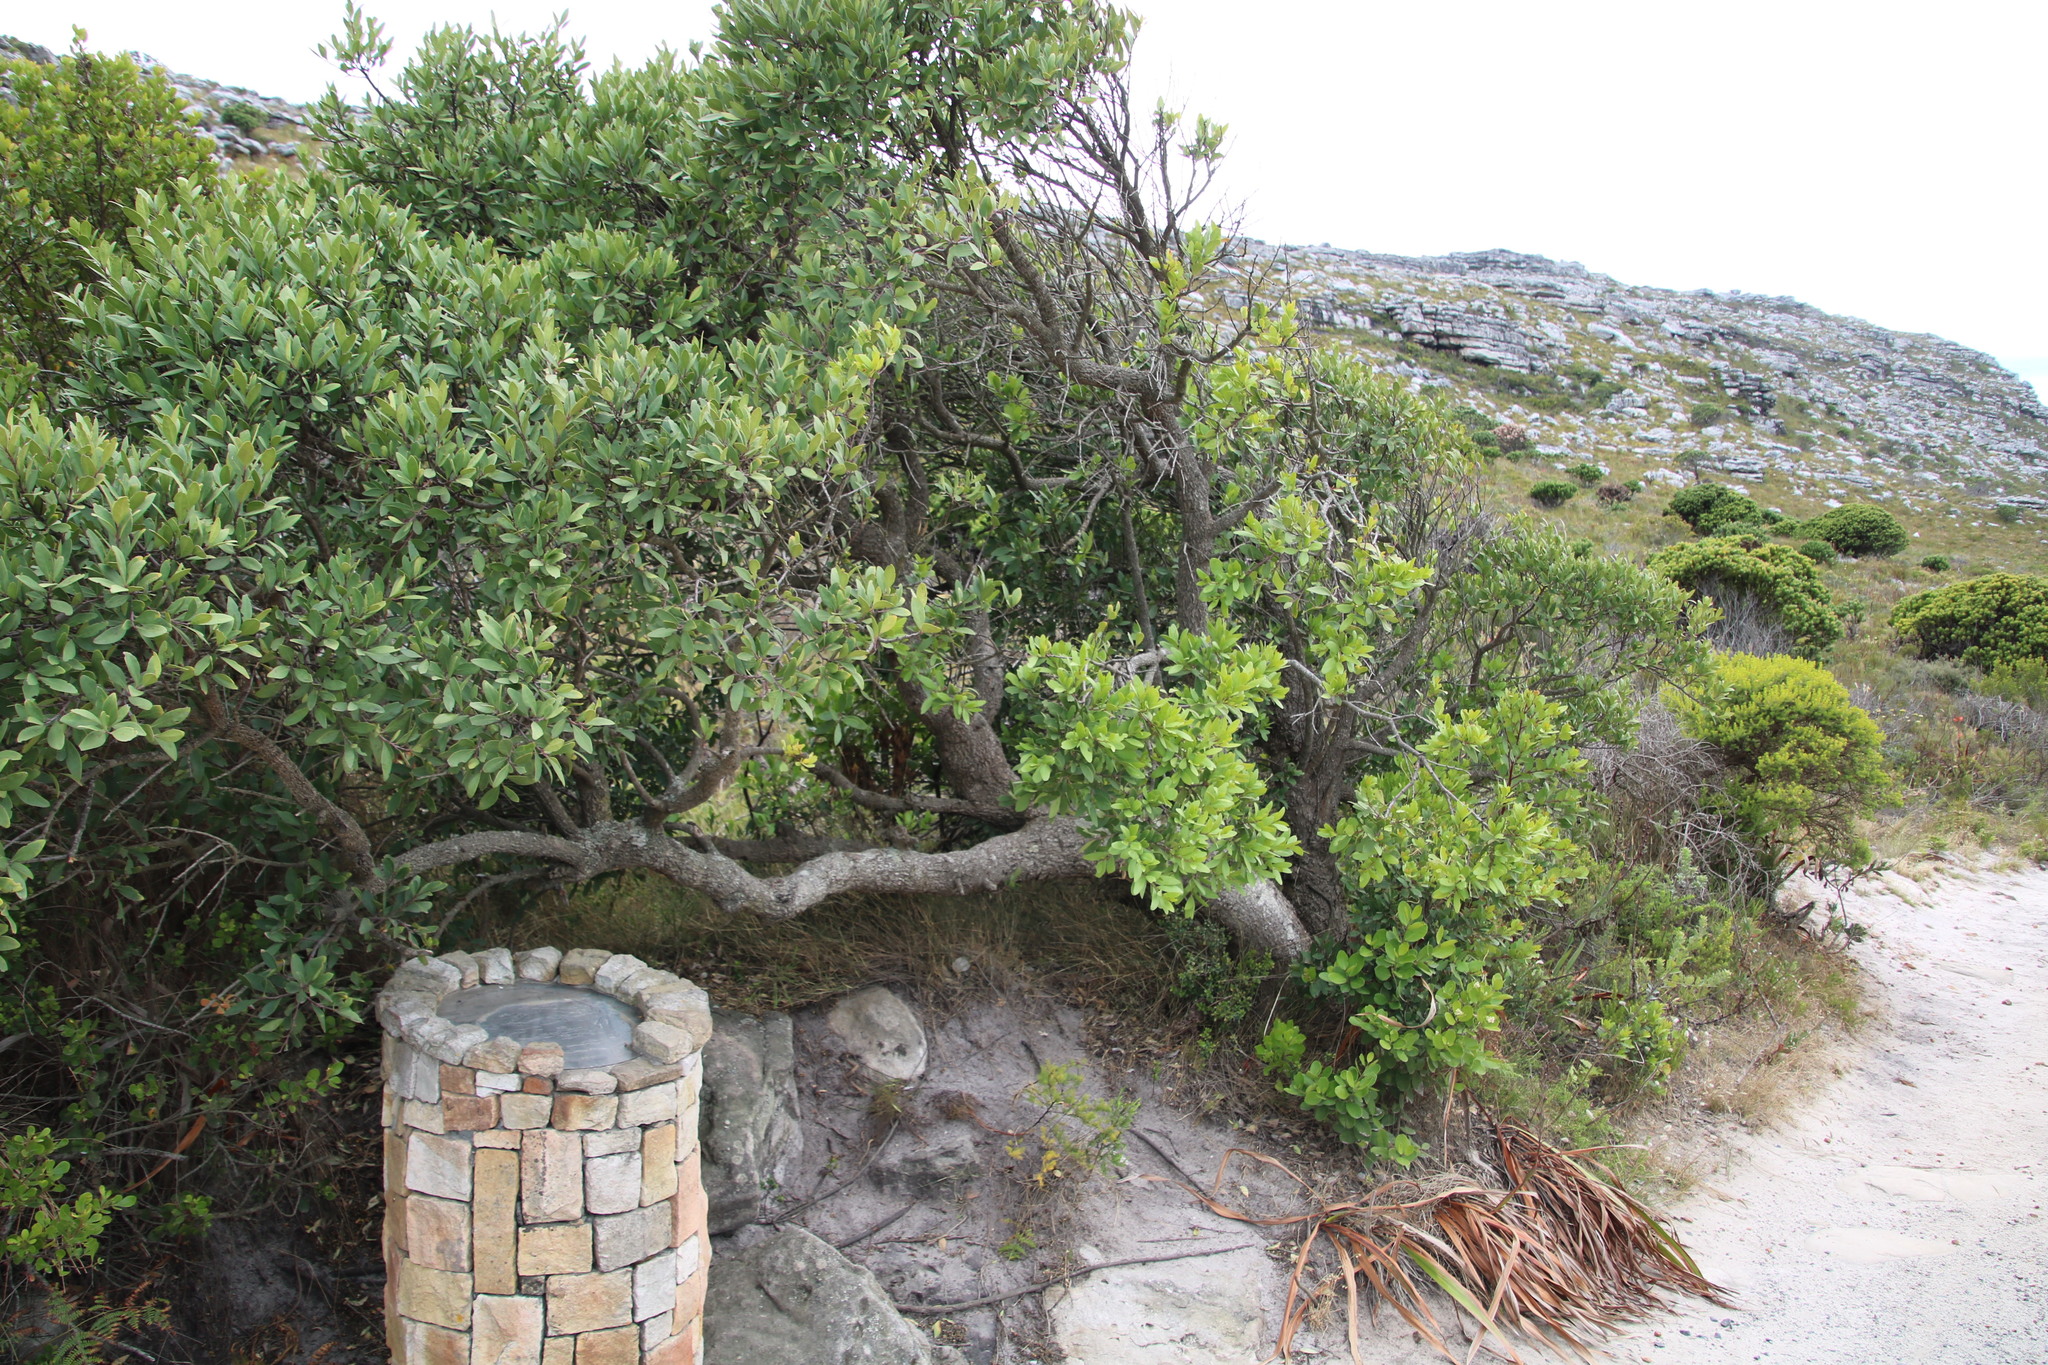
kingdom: Plantae
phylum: Tracheophyta
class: Magnoliopsida
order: Celastrales
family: Celastraceae
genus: Gymnosporia
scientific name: Gymnosporia laurina
